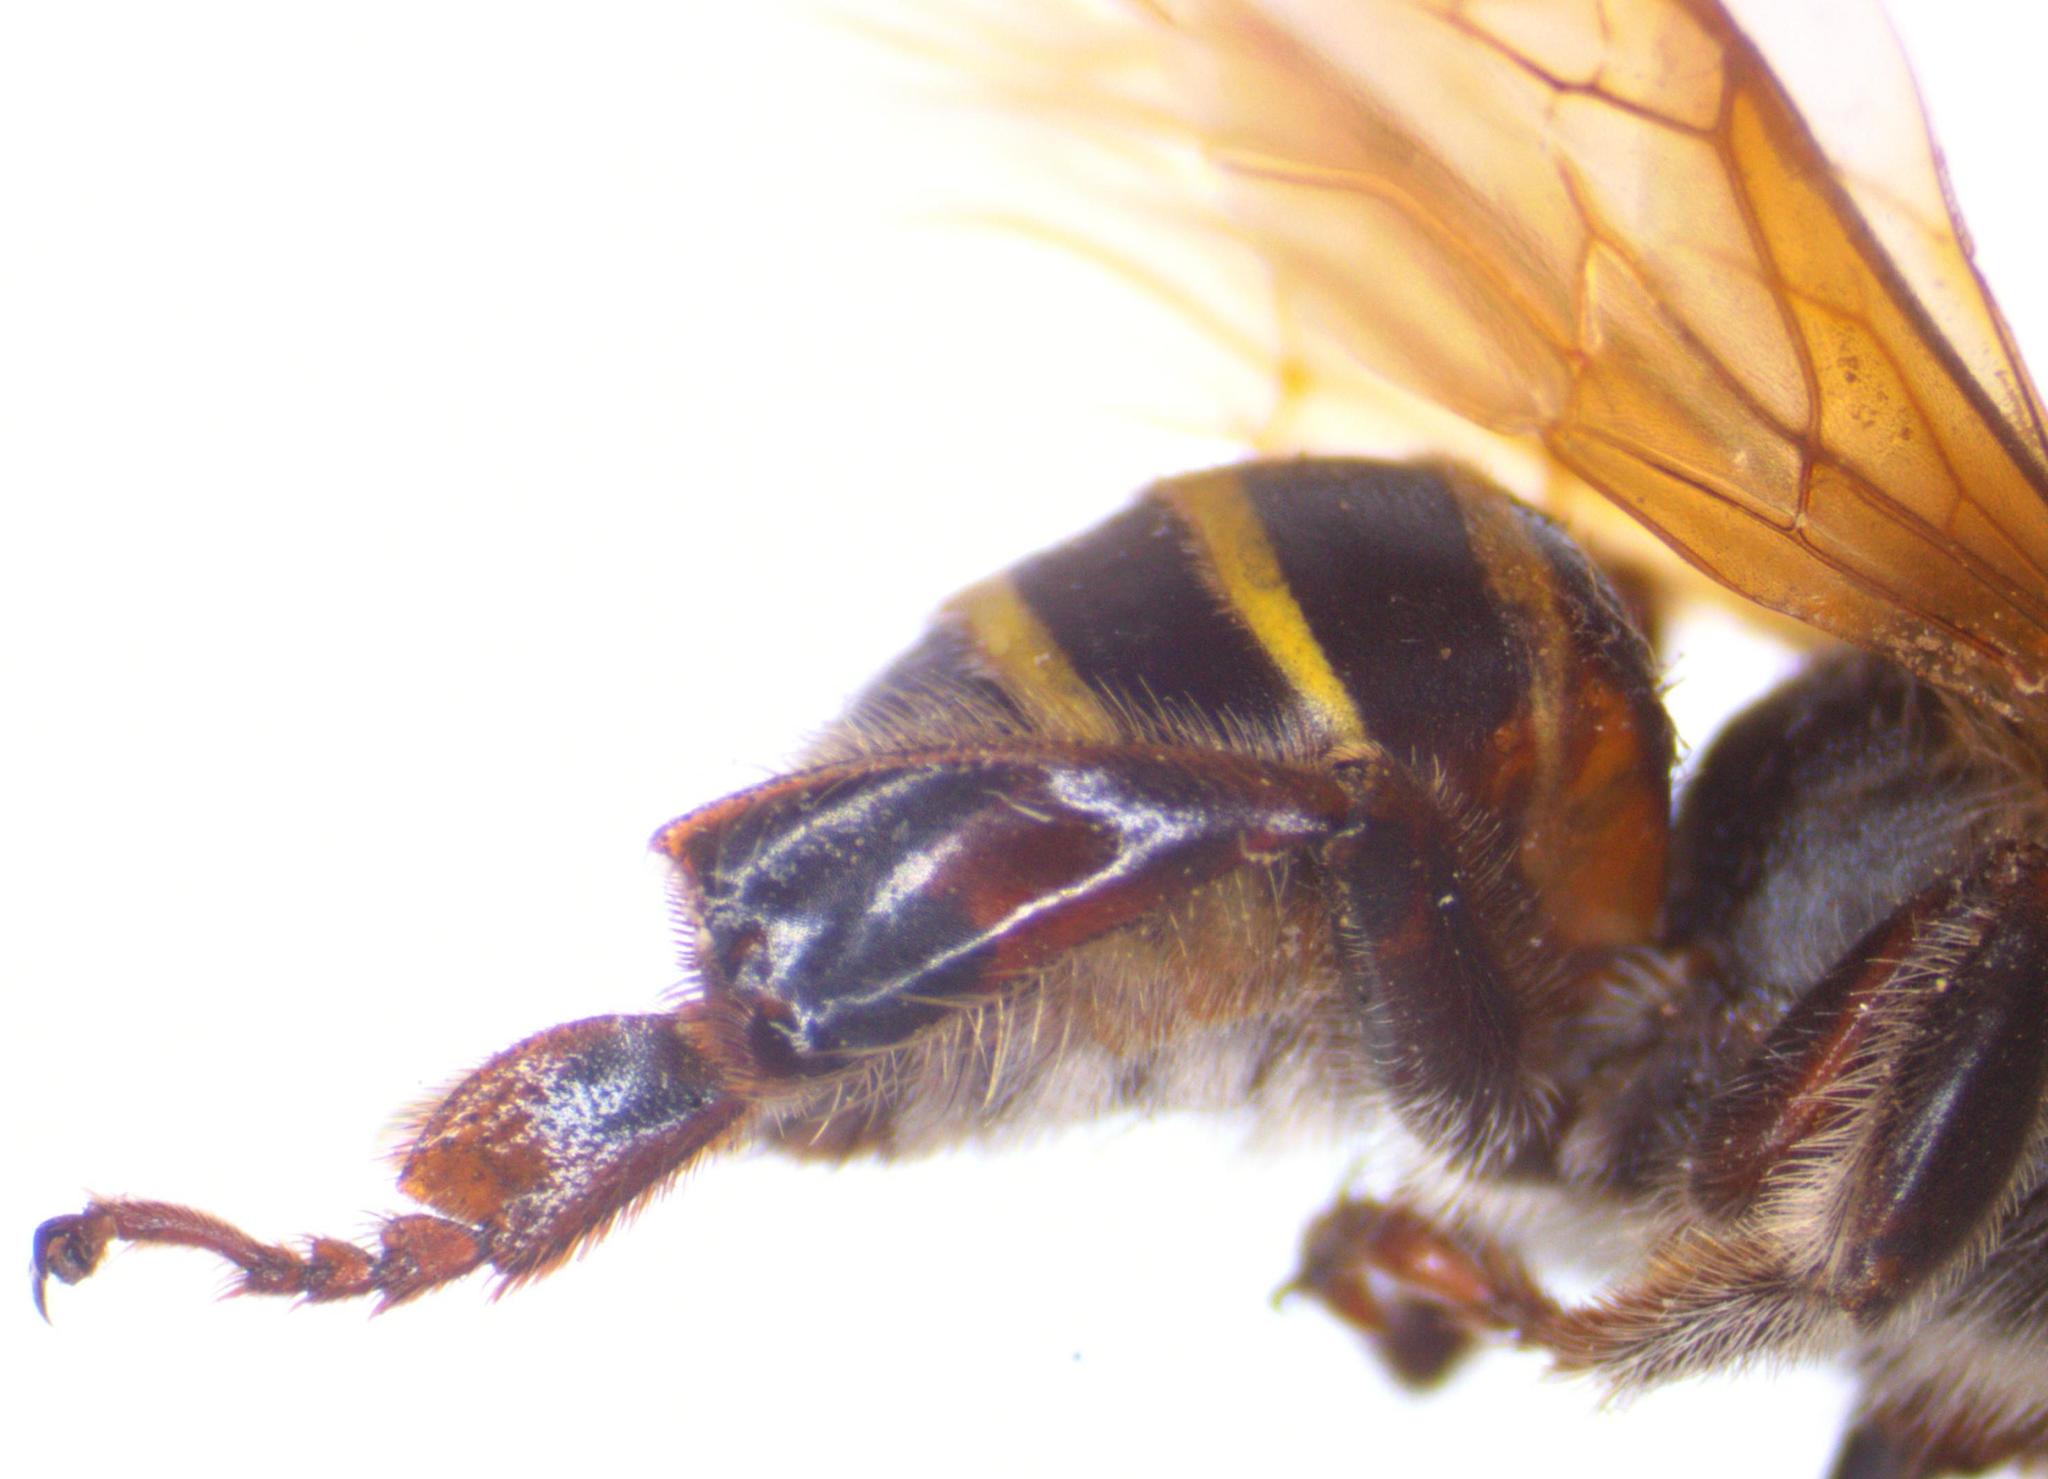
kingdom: Animalia
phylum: Arthropoda
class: Insecta
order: Hymenoptera
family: Apidae
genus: Melipona
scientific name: Melipona beecheii
